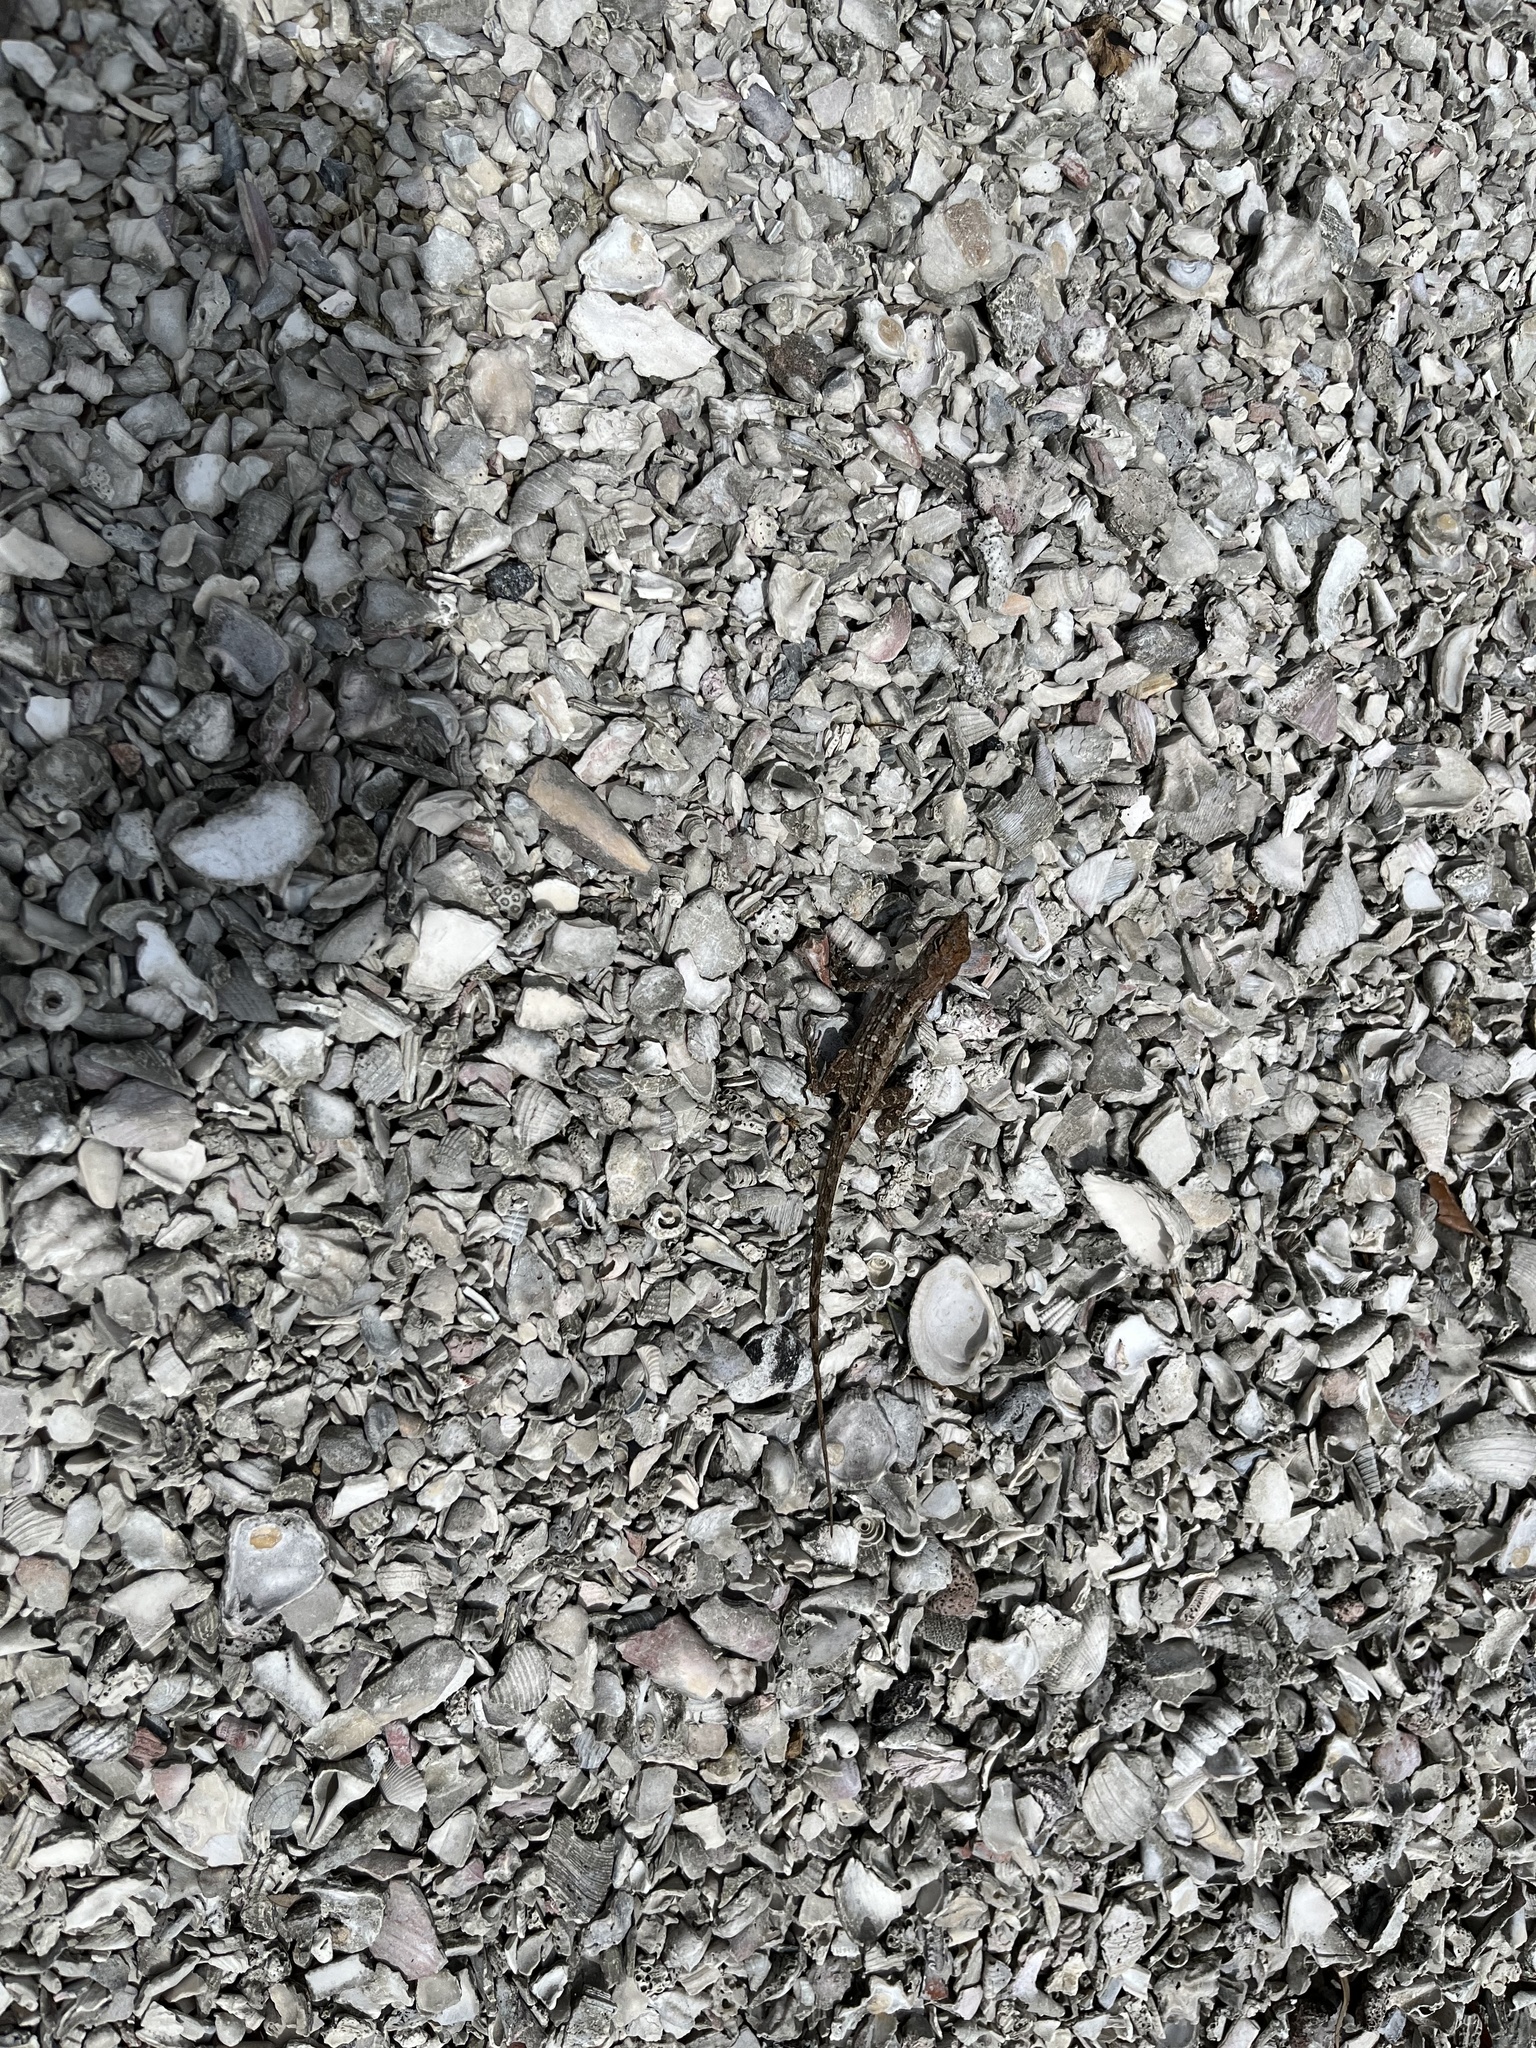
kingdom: Animalia
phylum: Chordata
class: Squamata
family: Dactyloidae
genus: Anolis
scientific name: Anolis sagrei
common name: Brown anole
